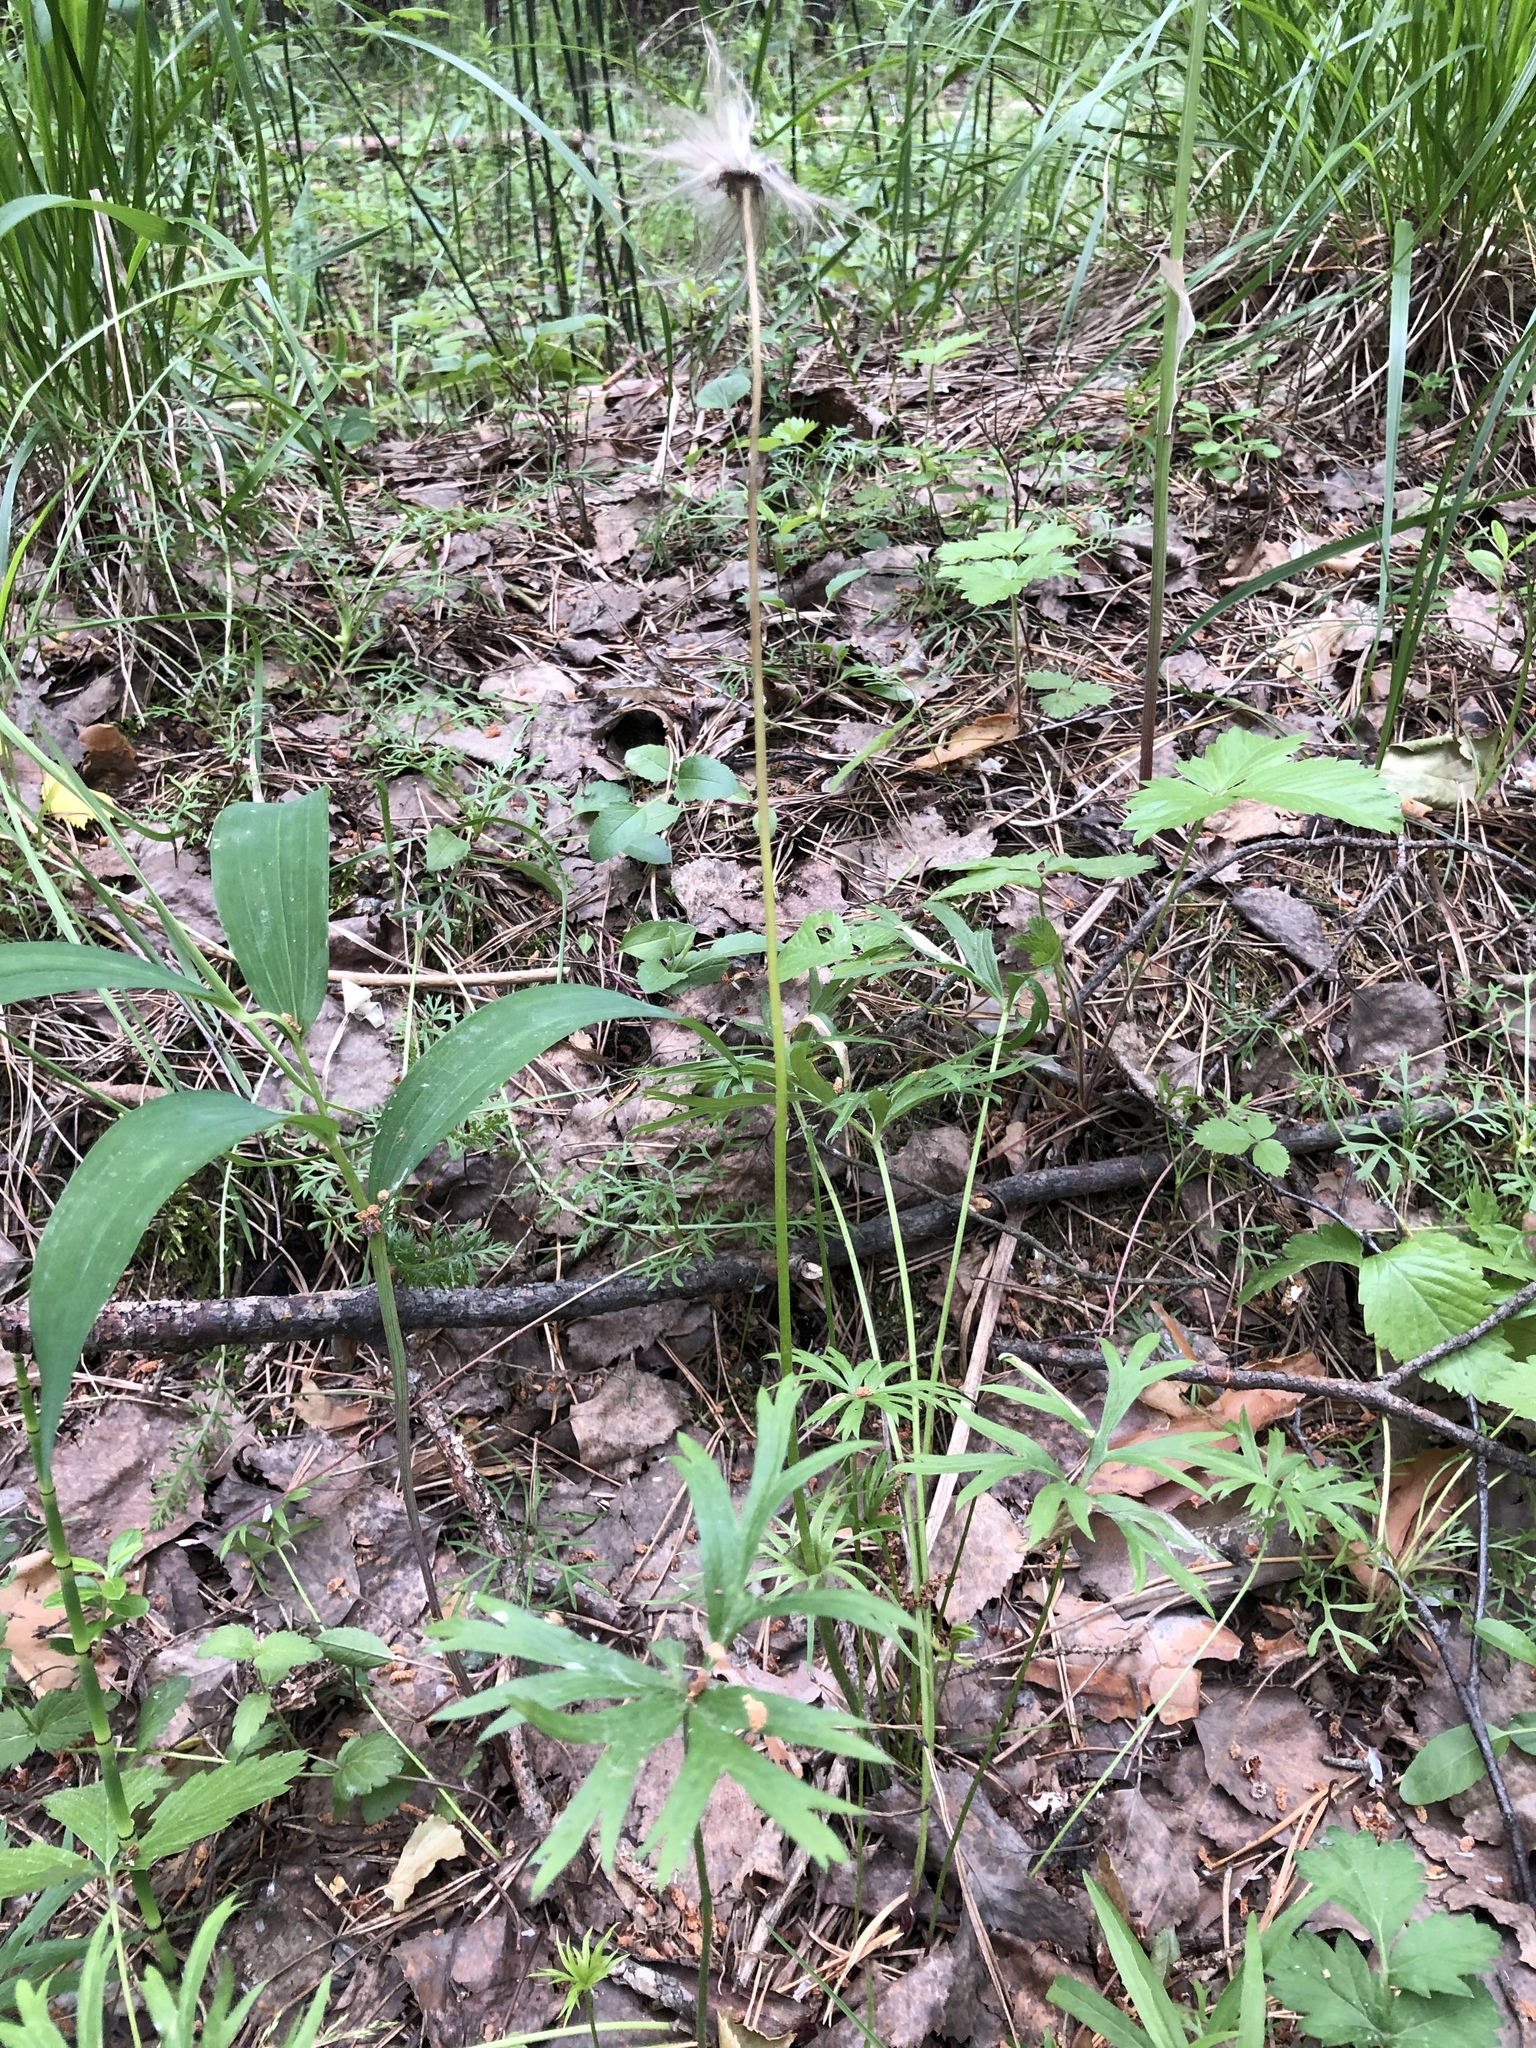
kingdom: Plantae
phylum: Tracheophyta
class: Magnoliopsida
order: Ranunculales
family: Ranunculaceae
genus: Pulsatilla
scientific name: Pulsatilla patens
